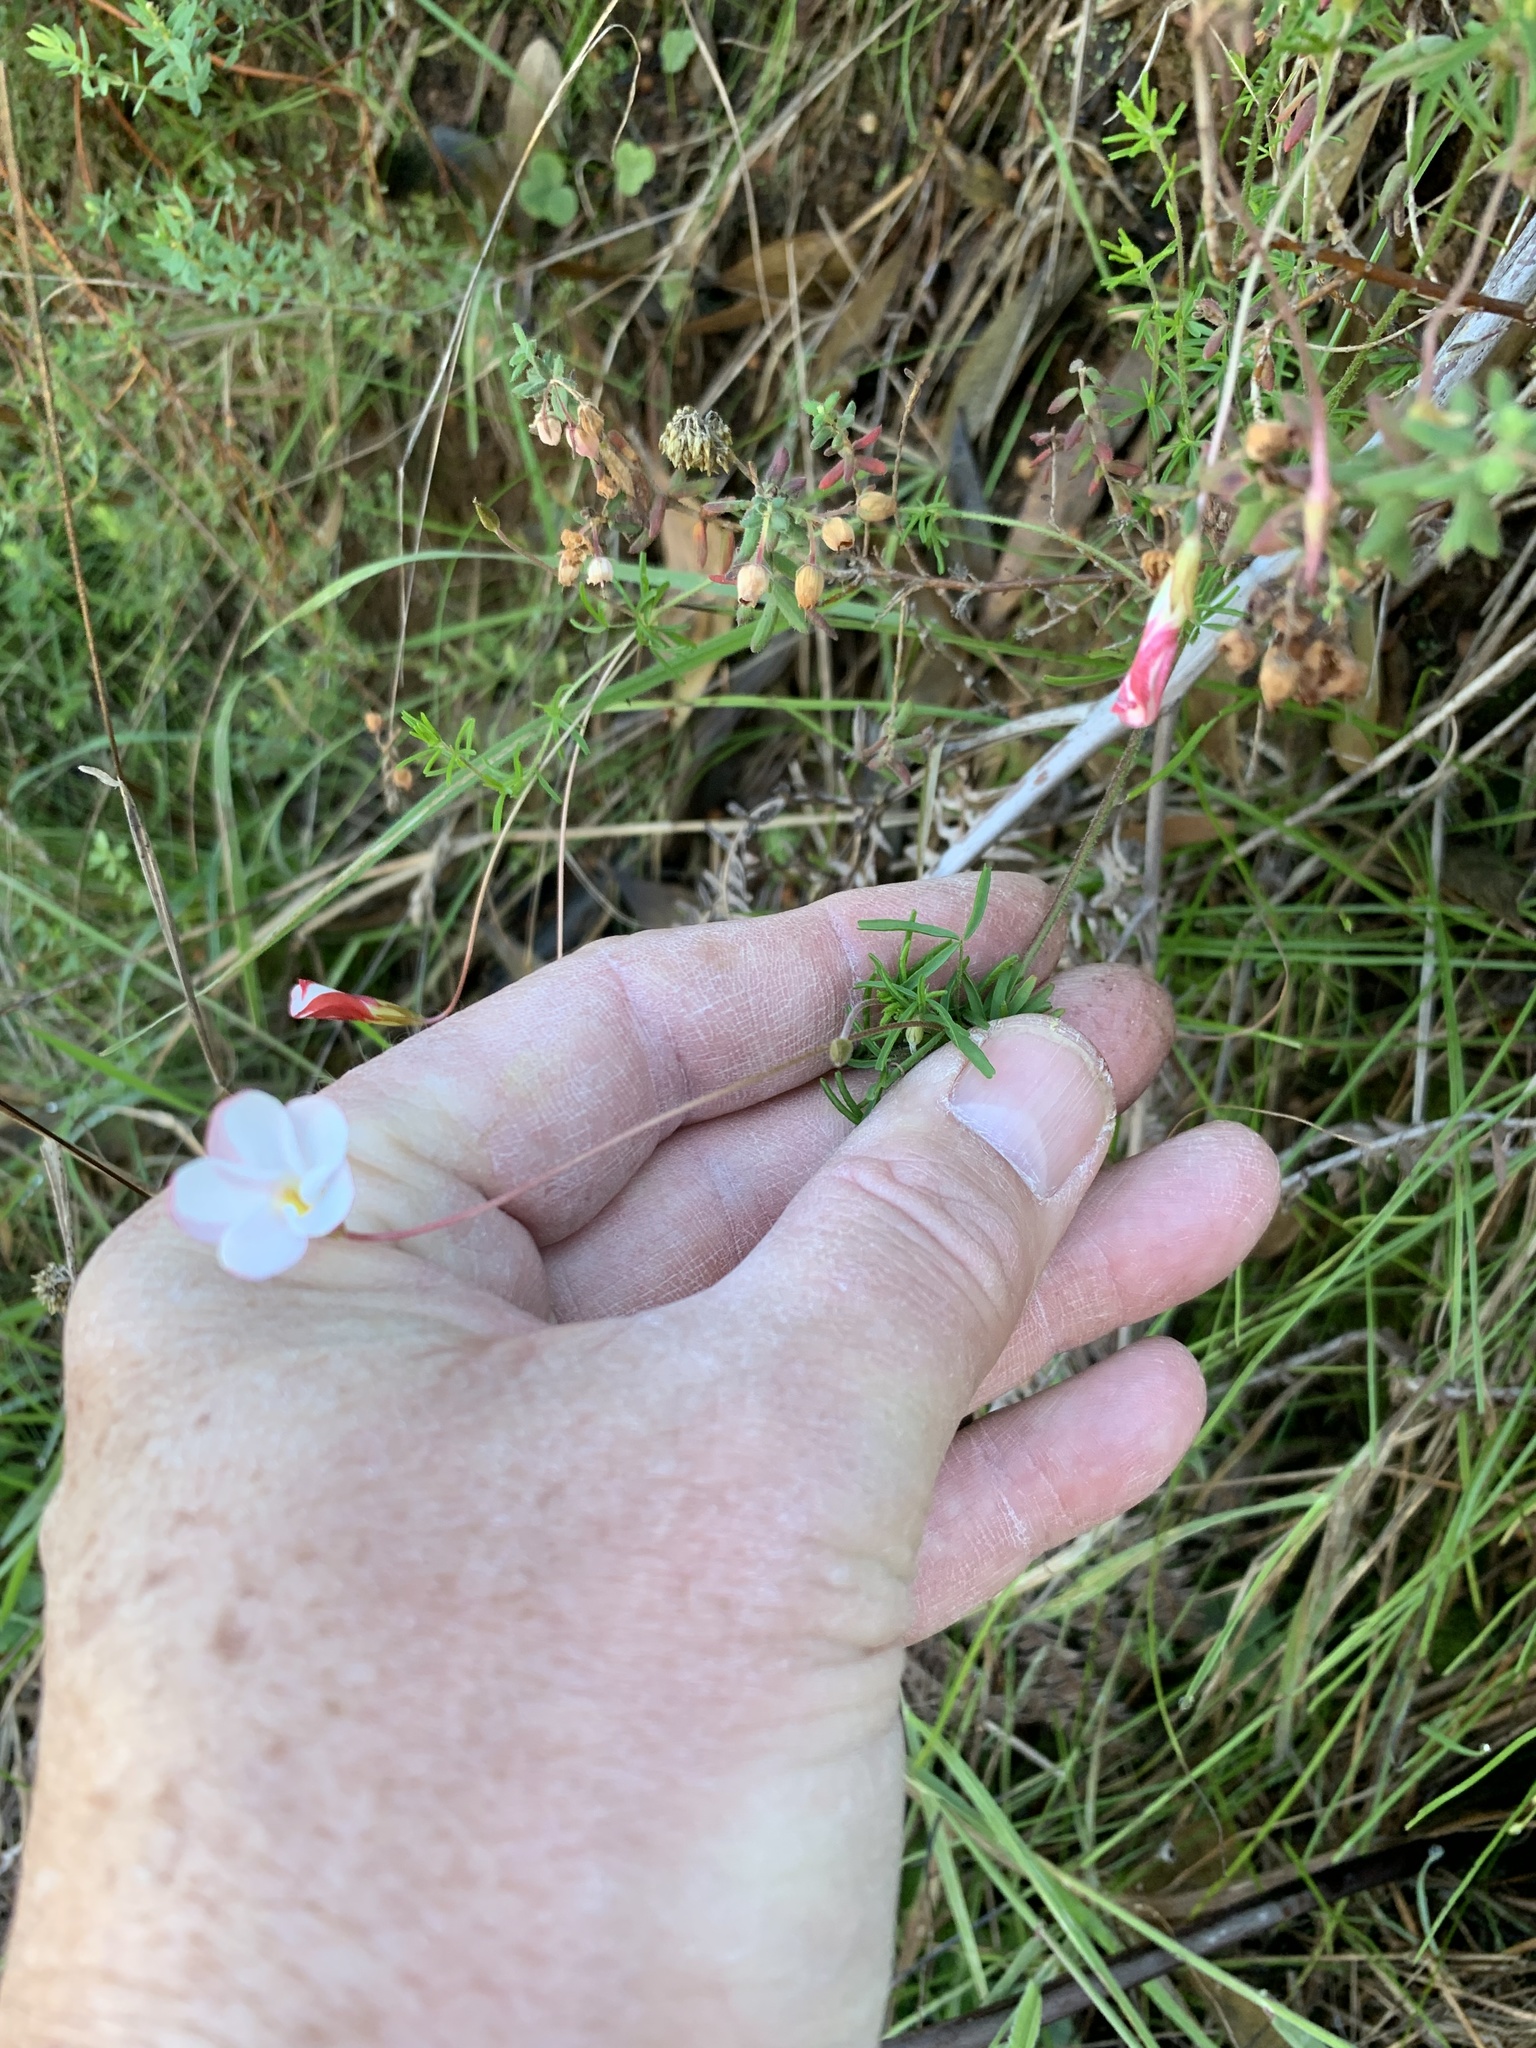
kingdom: Plantae
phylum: Tracheophyta
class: Magnoliopsida
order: Oxalidales
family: Oxalidaceae
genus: Oxalis
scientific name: Oxalis tenuifolia
